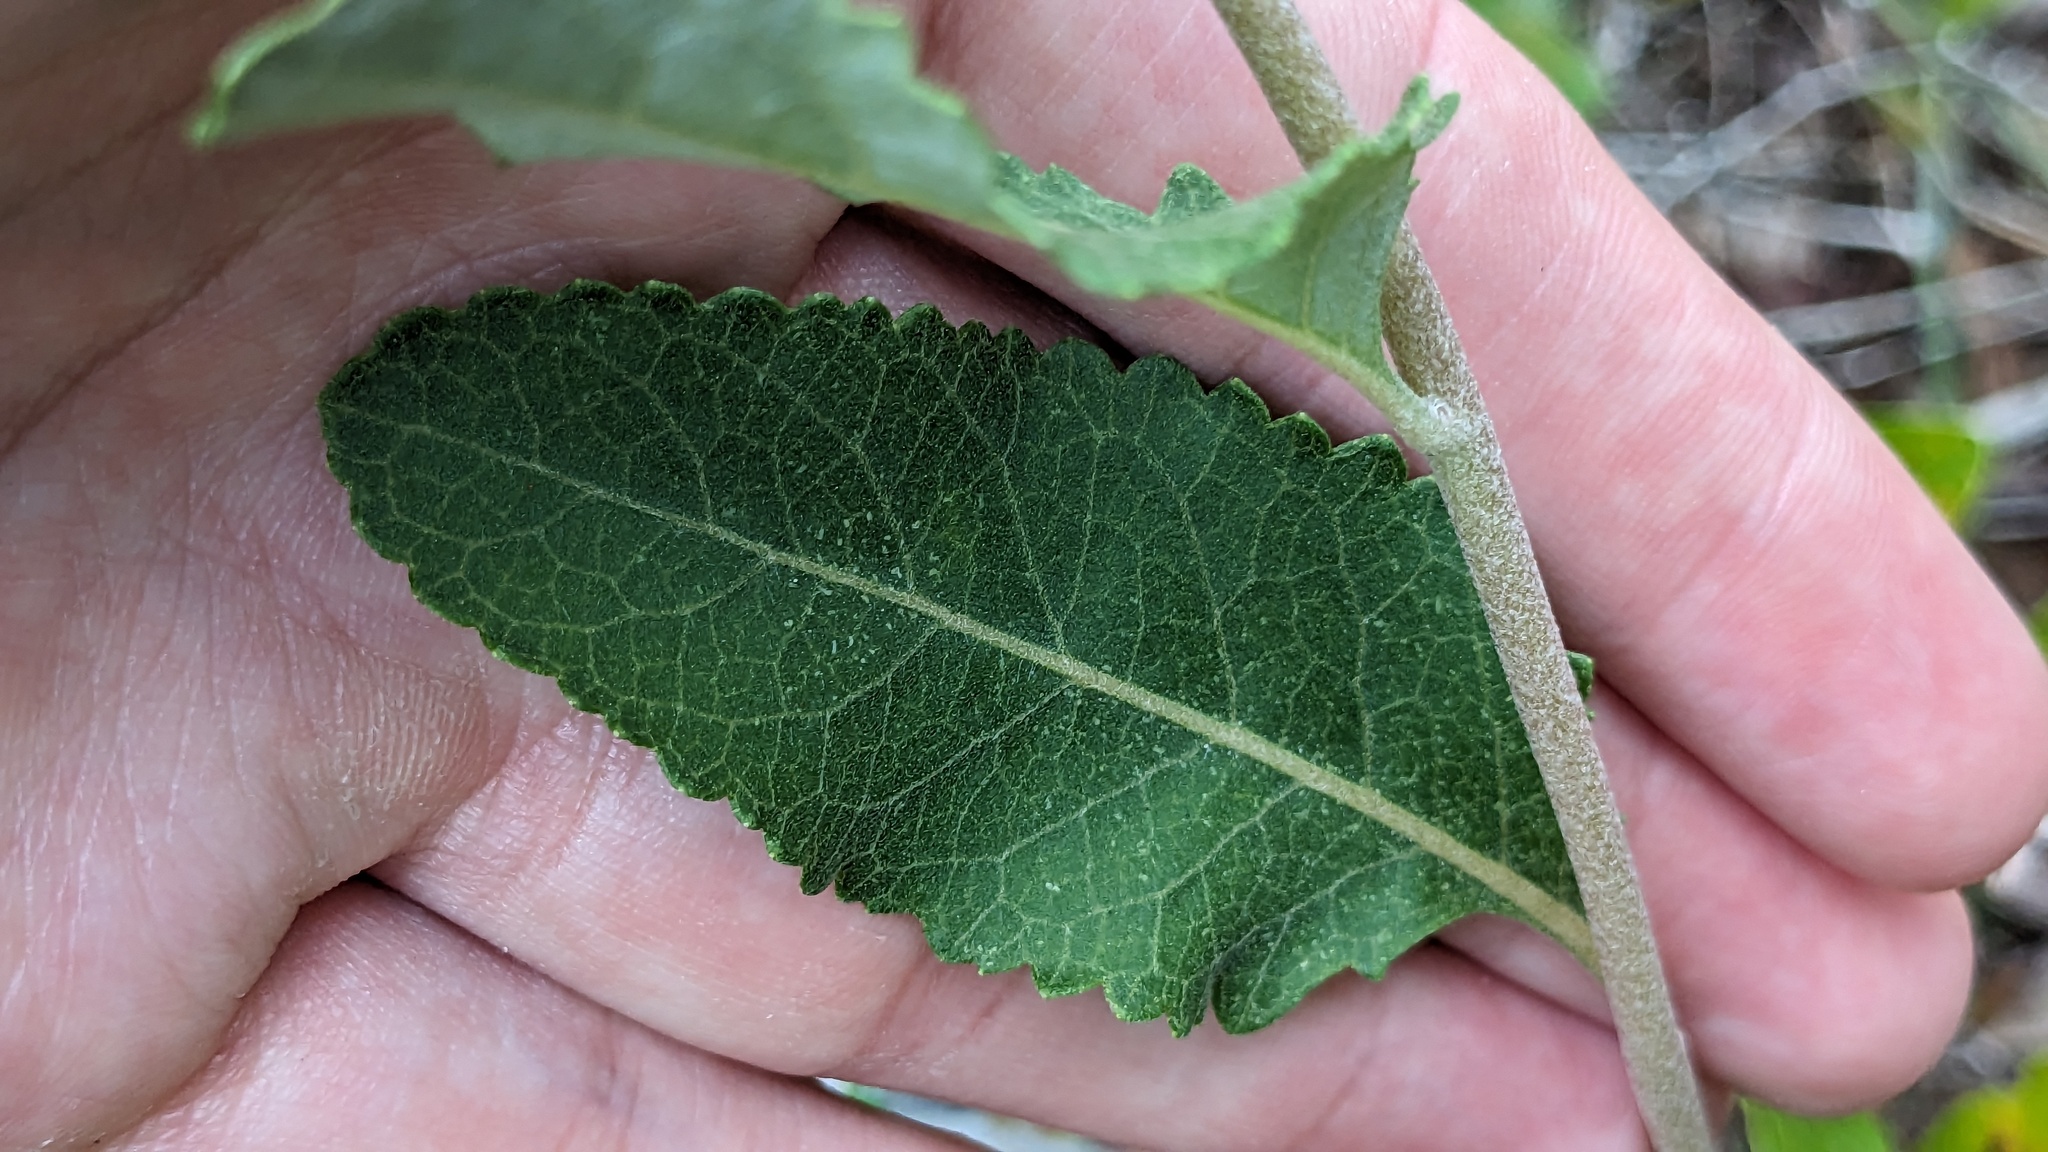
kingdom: Plantae
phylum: Tracheophyta
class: Magnoliopsida
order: Asterales
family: Asteraceae
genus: Berlandiera
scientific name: Berlandiera pumila
